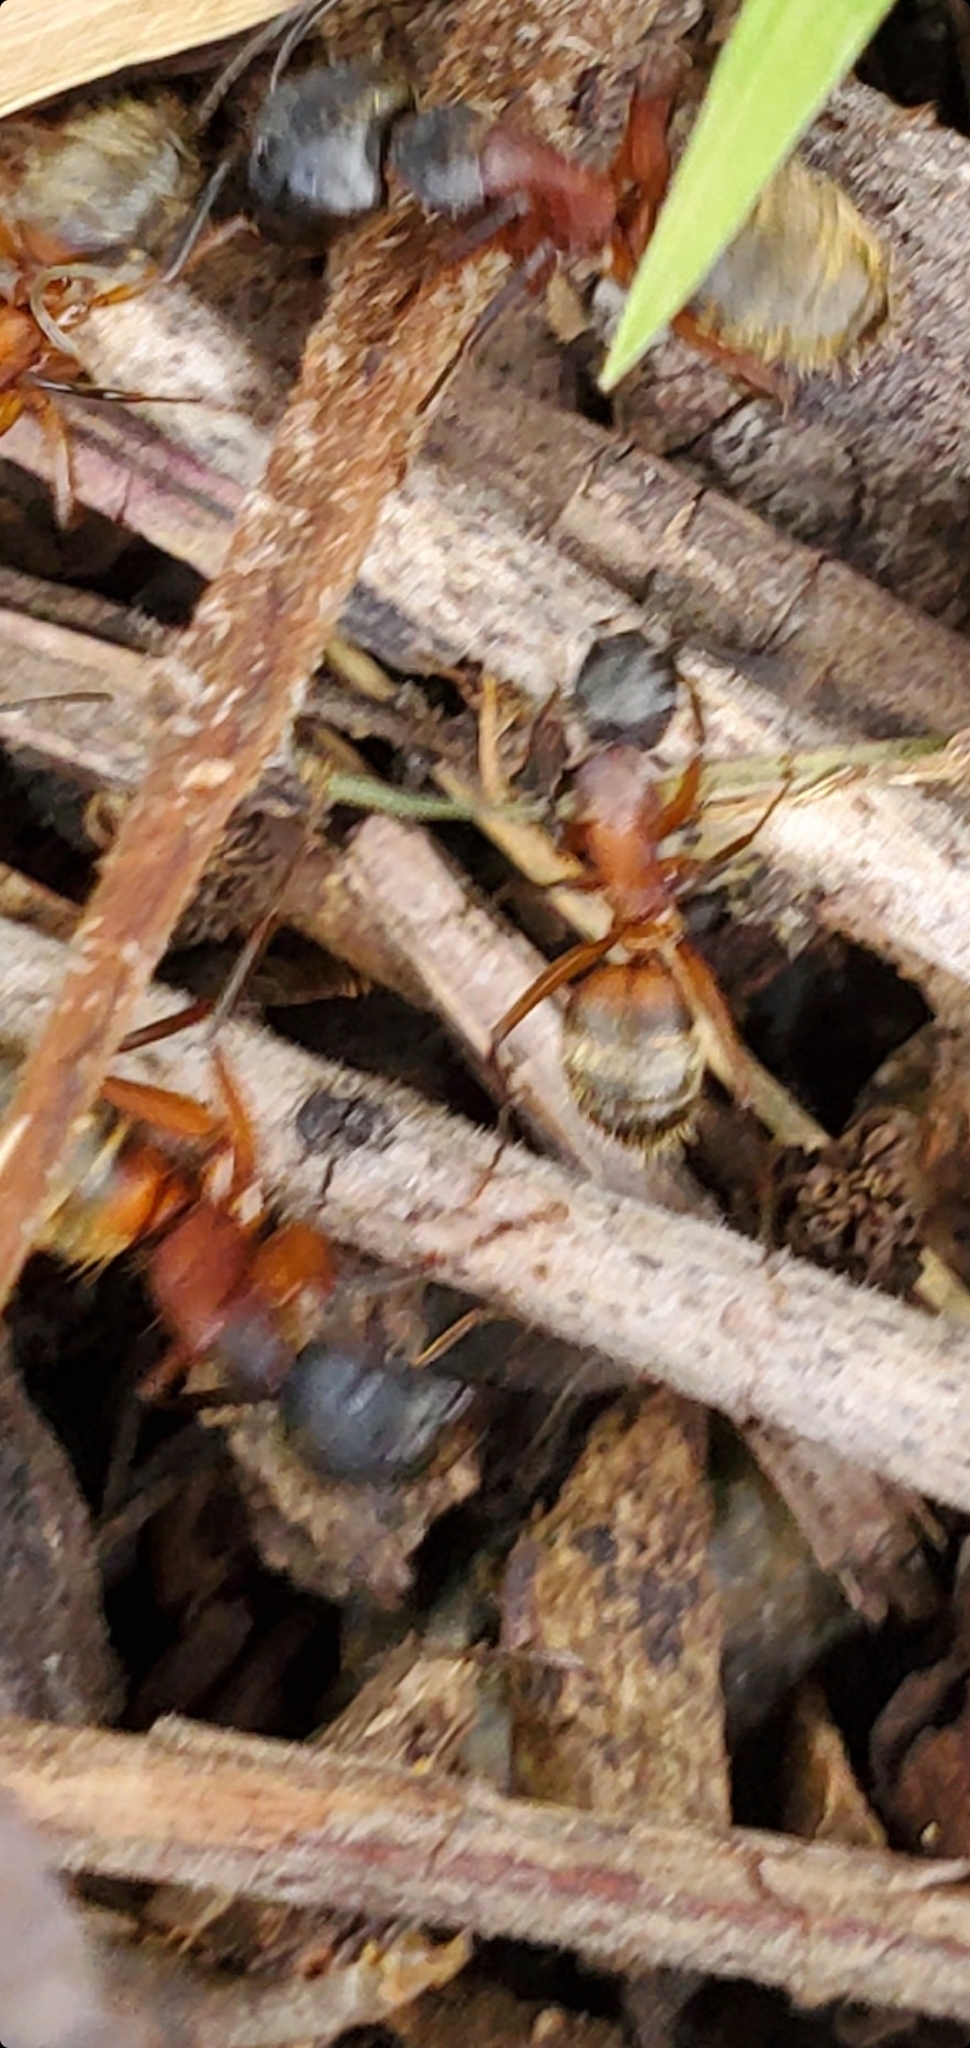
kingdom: Animalia
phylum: Arthropoda
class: Insecta
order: Hymenoptera
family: Formicidae
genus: Camponotus
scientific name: Camponotus chromaiodes
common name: Red carpenter ant
